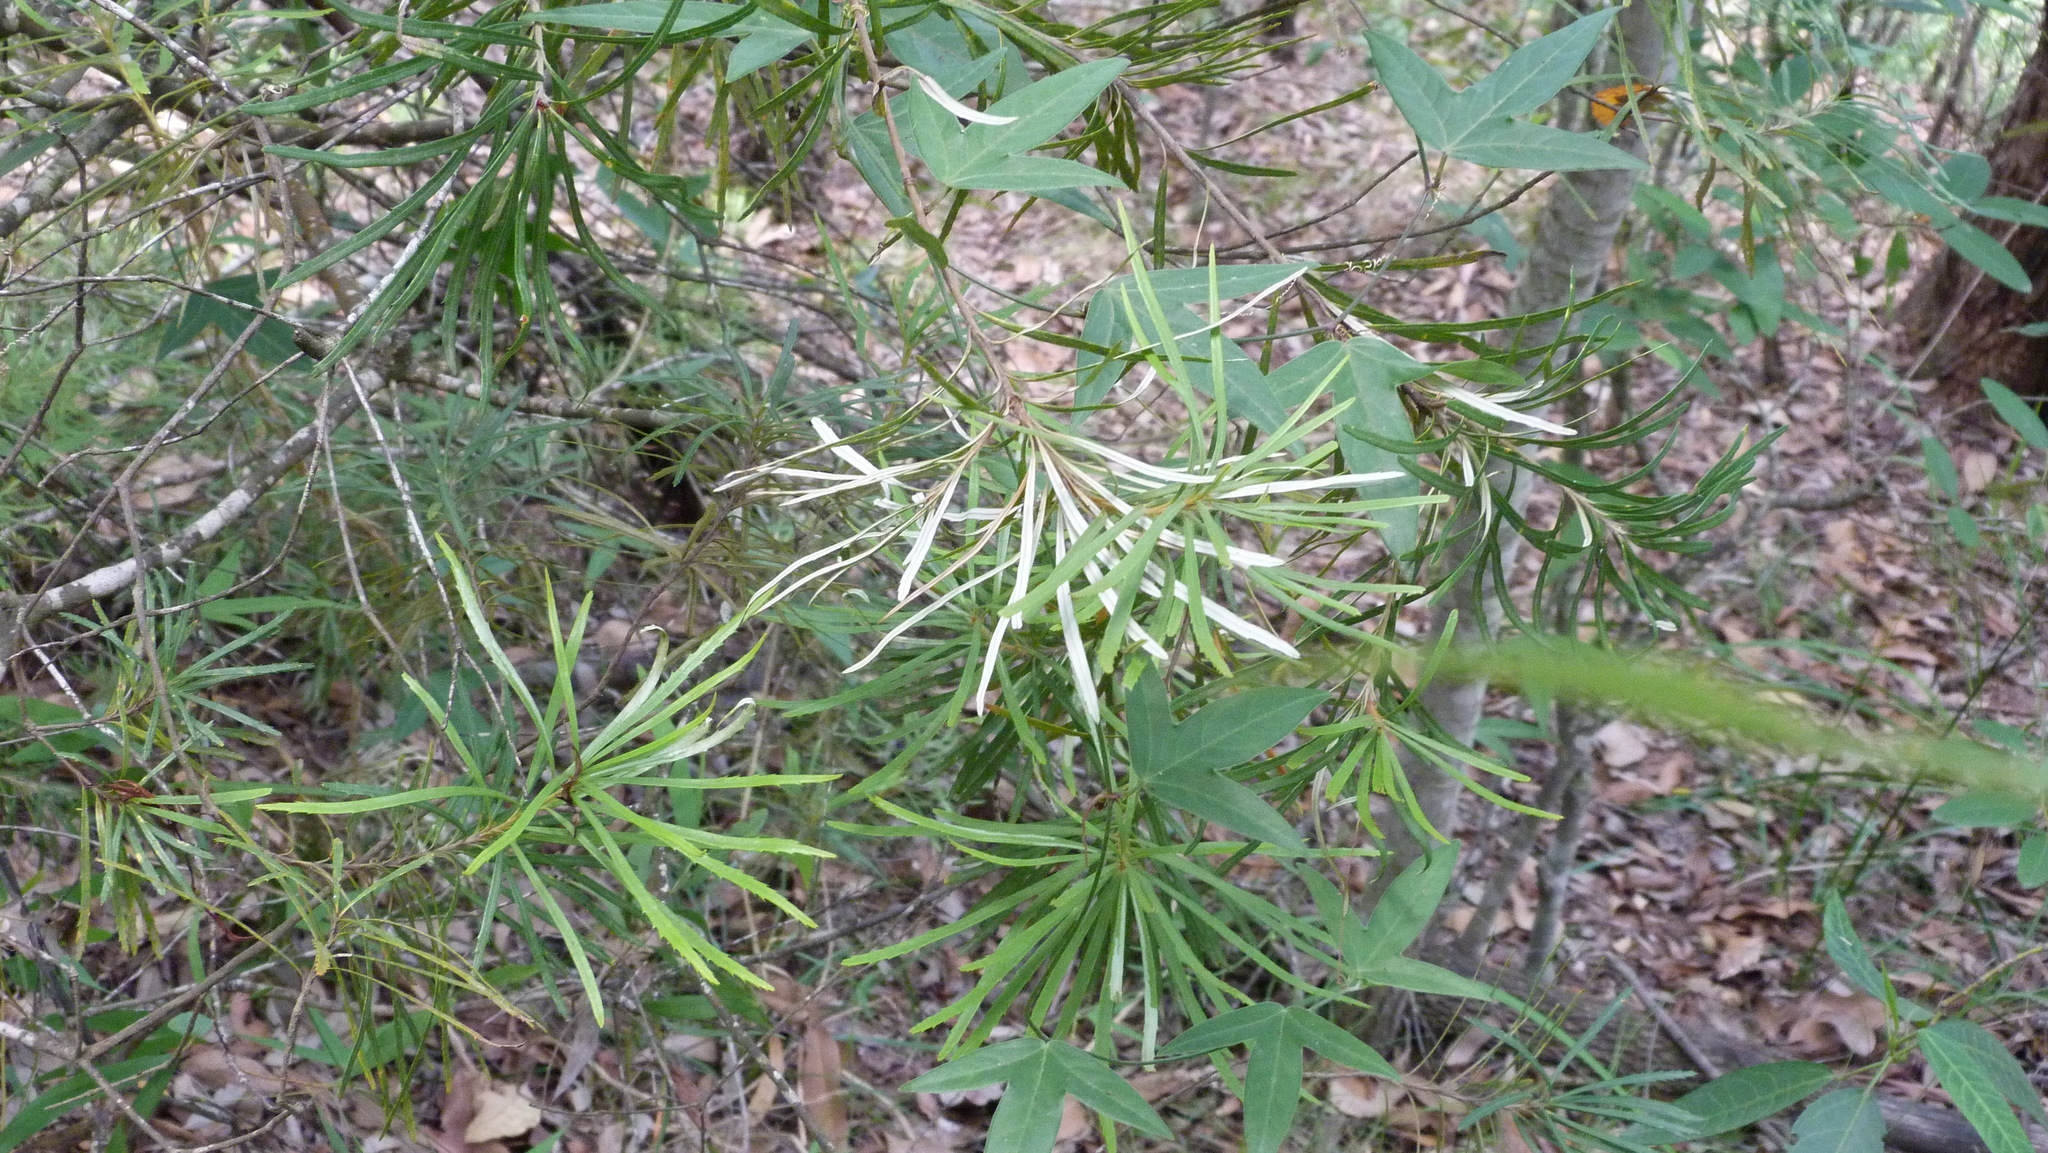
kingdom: Plantae
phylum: Tracheophyta
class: Magnoliopsida
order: Malpighiales
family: Passifloraceae
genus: Passiflora
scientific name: Passiflora suberosa
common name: Wild passionfruit
